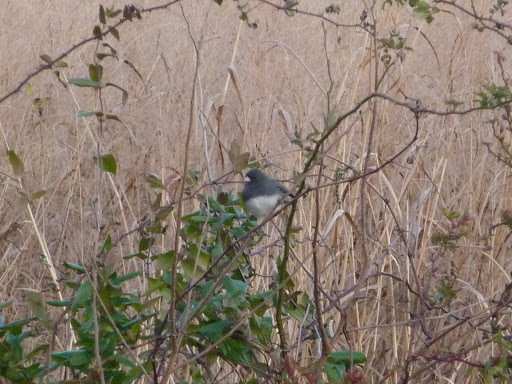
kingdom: Animalia
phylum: Chordata
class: Aves
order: Passeriformes
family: Passerellidae
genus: Junco
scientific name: Junco hyemalis
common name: Dark-eyed junco
